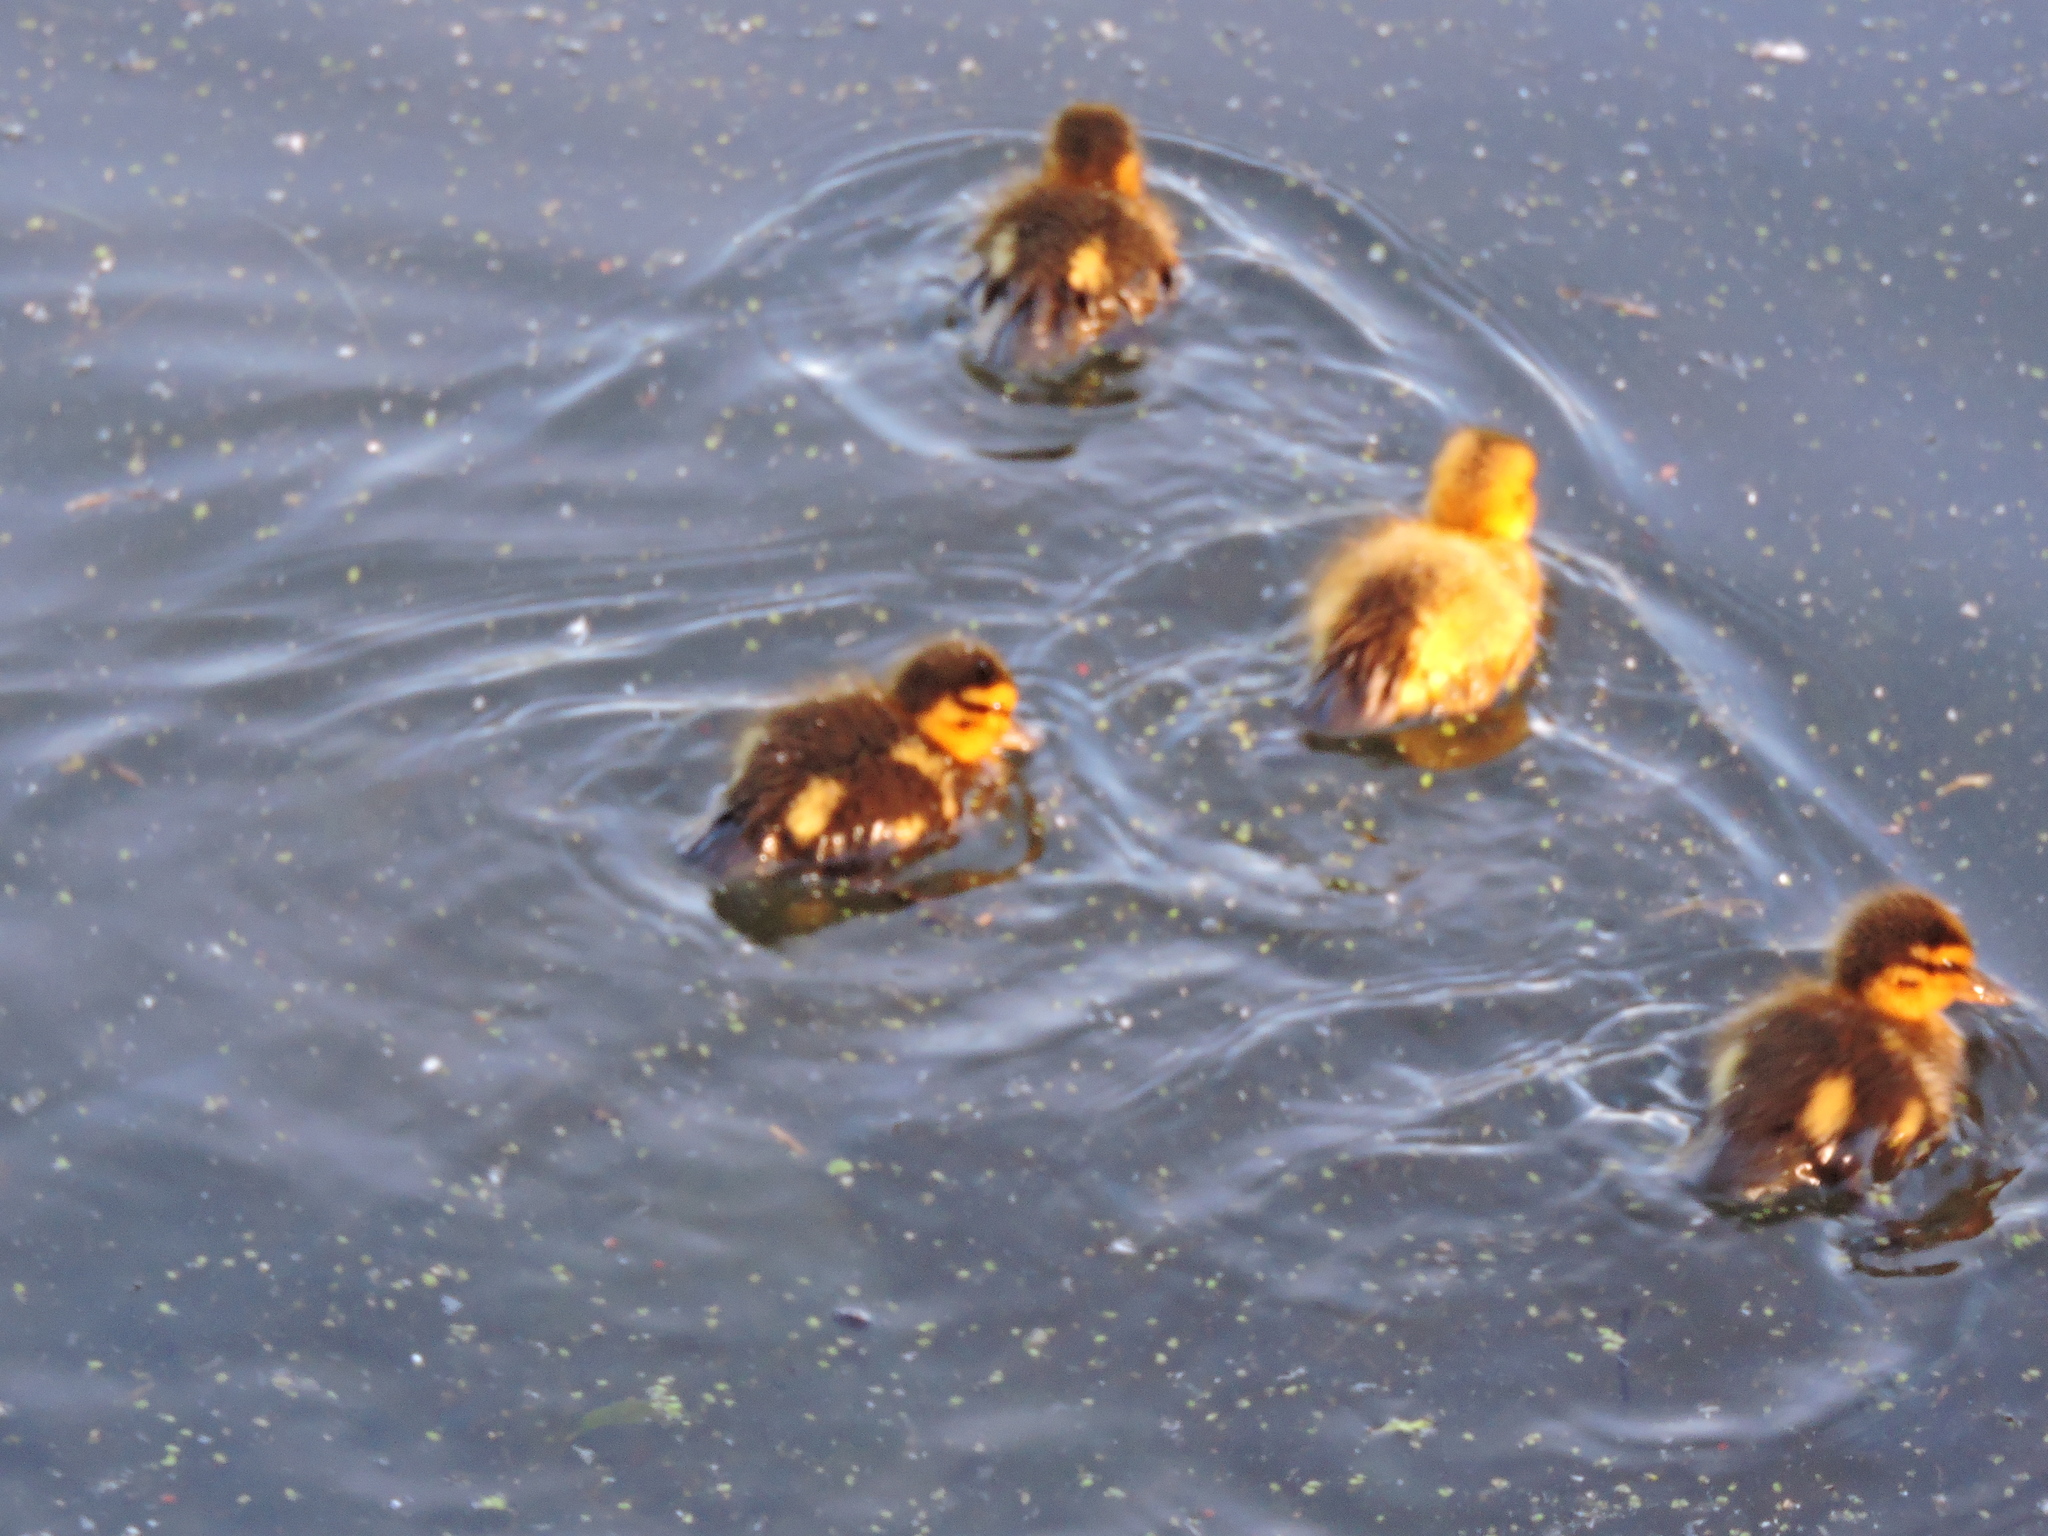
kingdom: Animalia
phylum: Chordata
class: Aves
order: Anseriformes
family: Anatidae
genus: Anas
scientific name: Anas platyrhynchos
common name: Mallard
